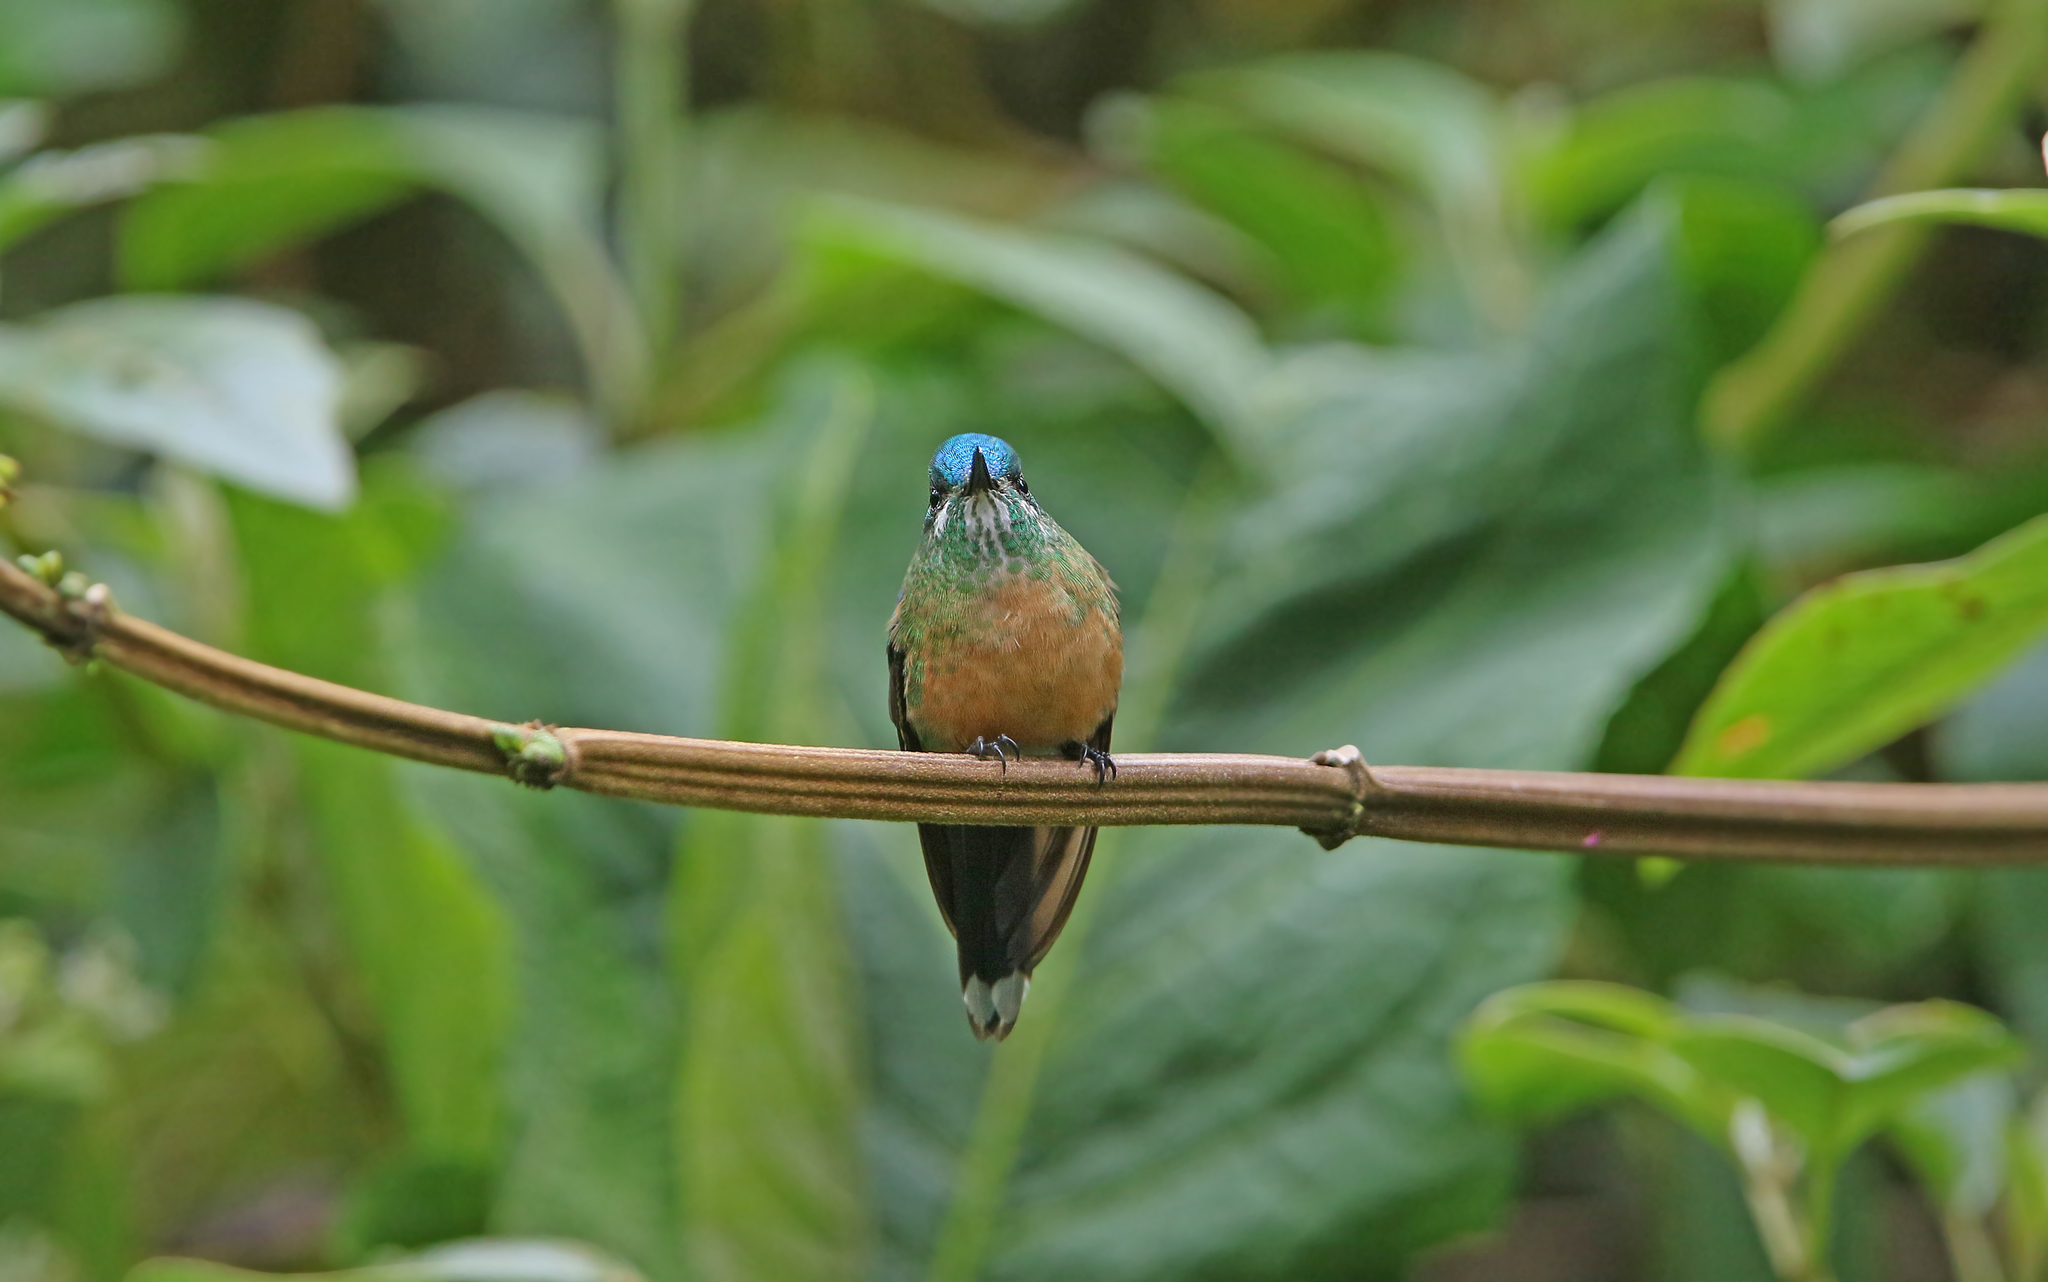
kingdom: Animalia
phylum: Chordata
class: Aves
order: Apodiformes
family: Trochilidae
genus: Aglaiocercus
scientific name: Aglaiocercus kingii
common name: Long-tailed sylph
